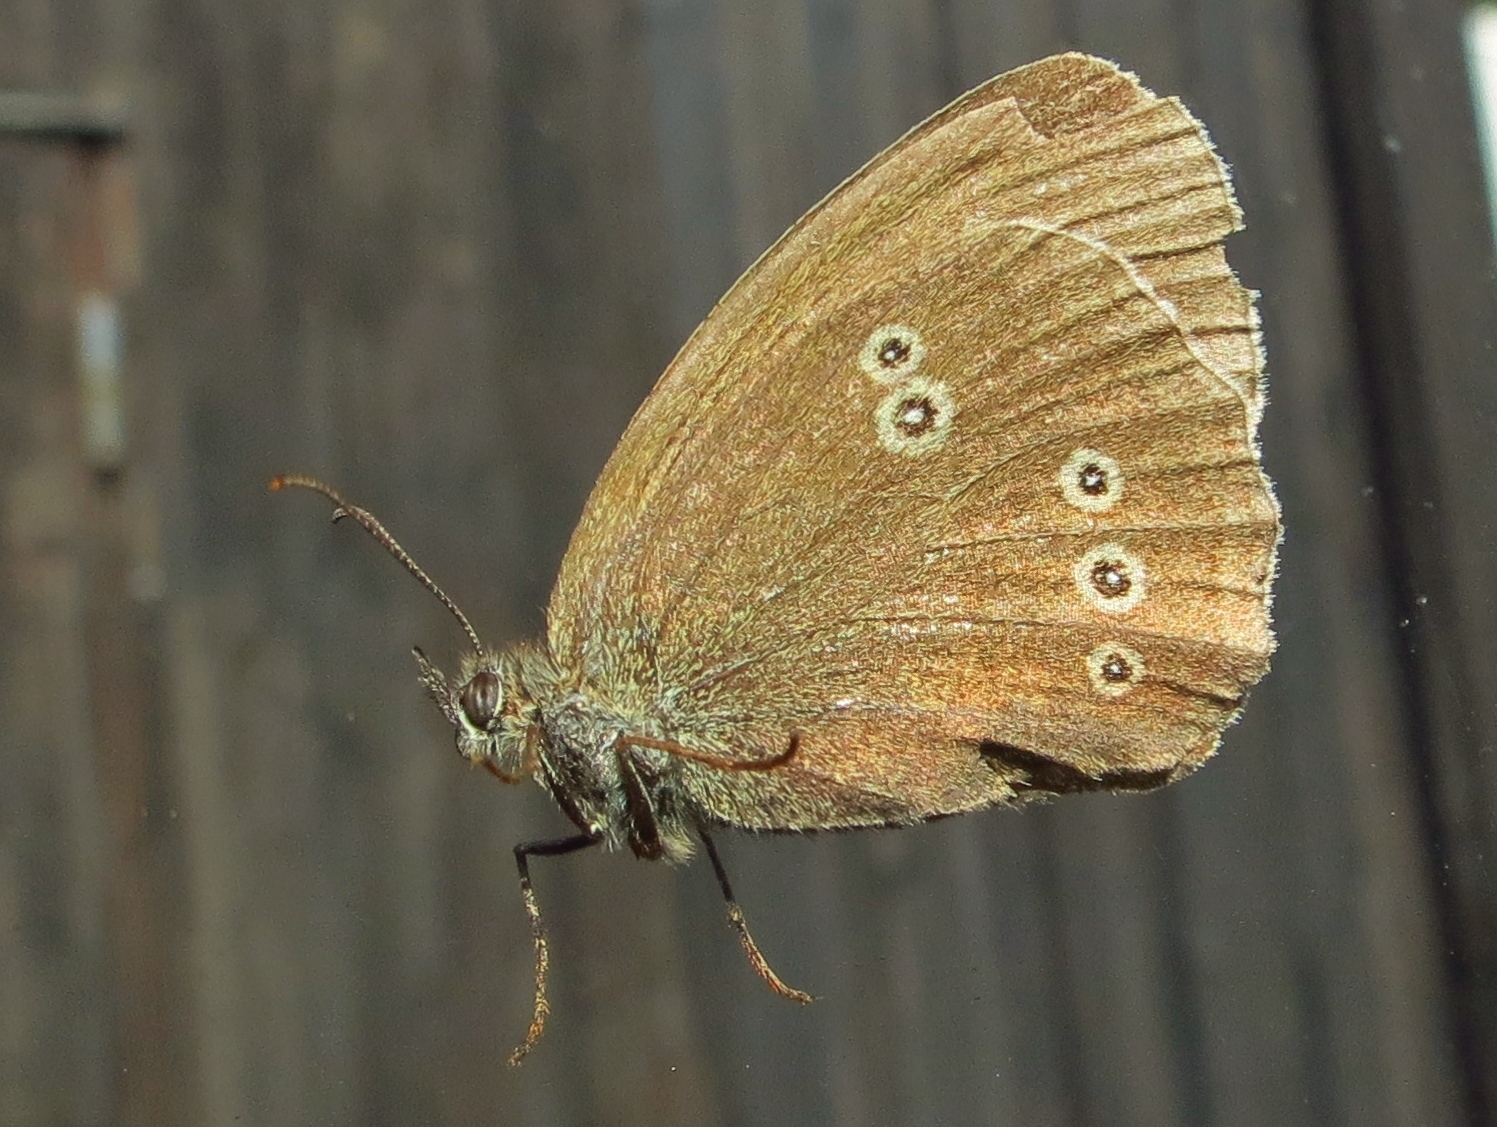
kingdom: Animalia
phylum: Arthropoda
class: Insecta
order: Lepidoptera
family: Nymphalidae
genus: Aphantopus
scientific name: Aphantopus hyperantus
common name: Ringlet
